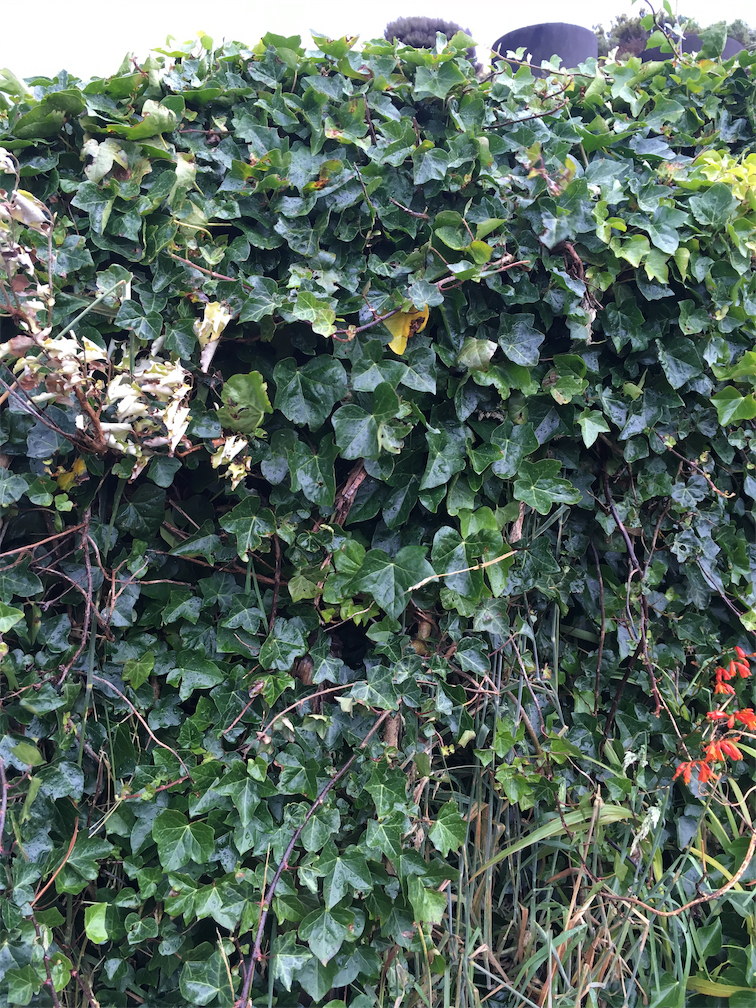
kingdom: Plantae
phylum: Tracheophyta
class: Magnoliopsida
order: Apiales
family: Araliaceae
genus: Hedera
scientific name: Hedera helix
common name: Ivy
